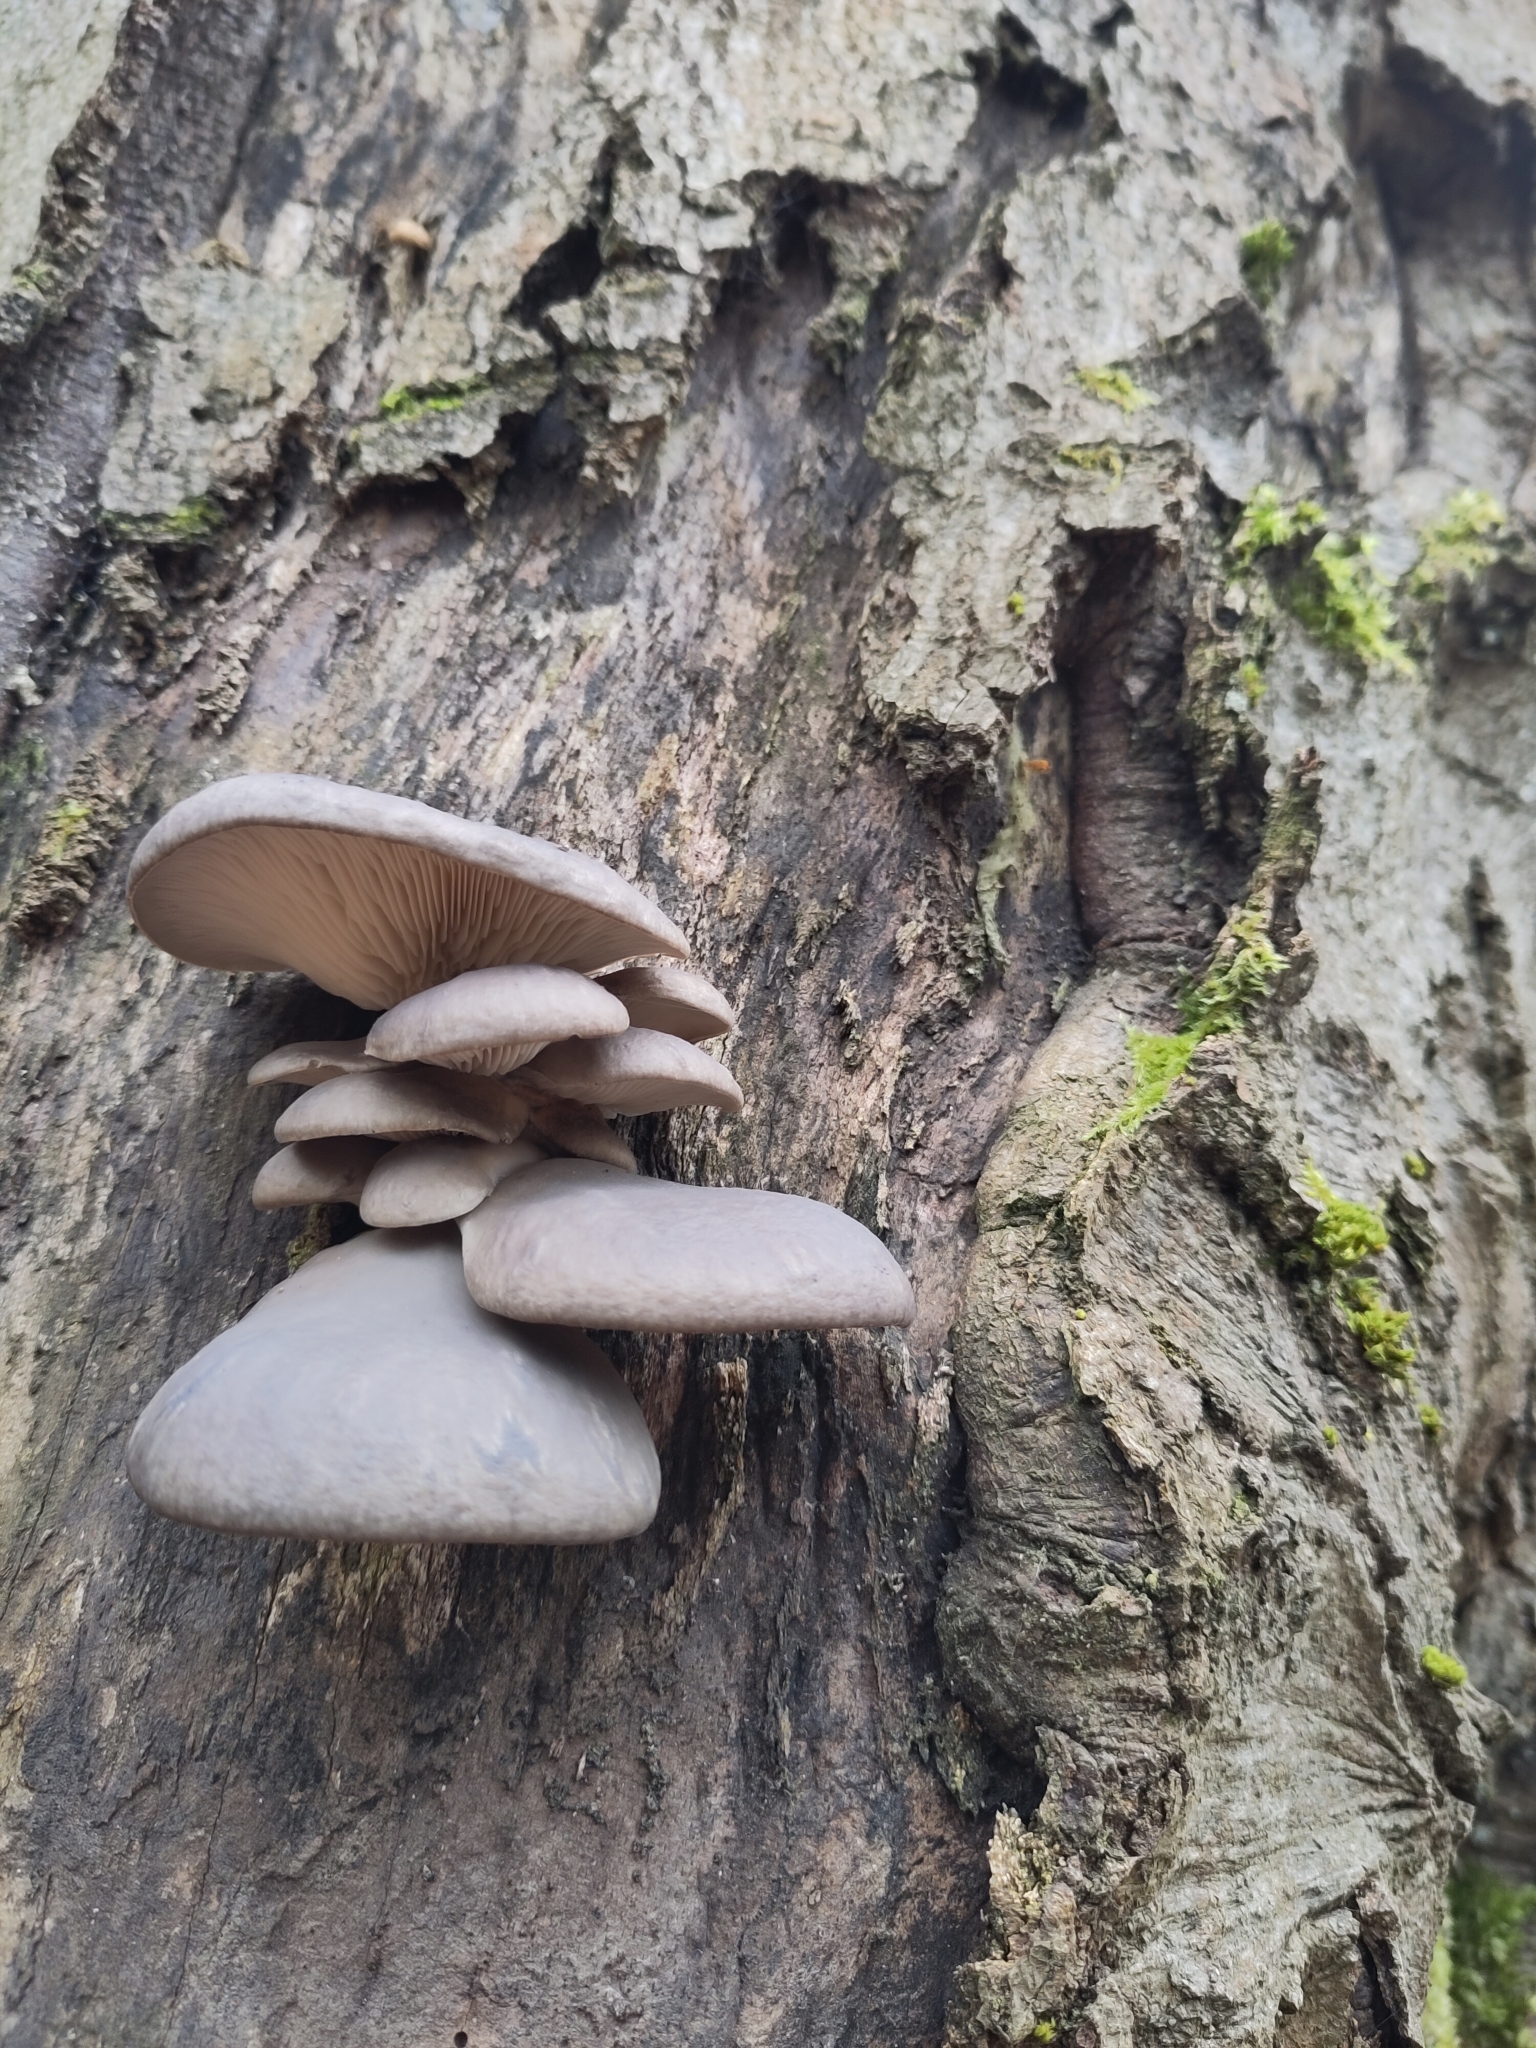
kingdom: Fungi
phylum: Basidiomycota
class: Agaricomycetes
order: Agaricales
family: Pleurotaceae
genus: Pleurotus
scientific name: Pleurotus ostreatus
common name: Oyster mushroom
